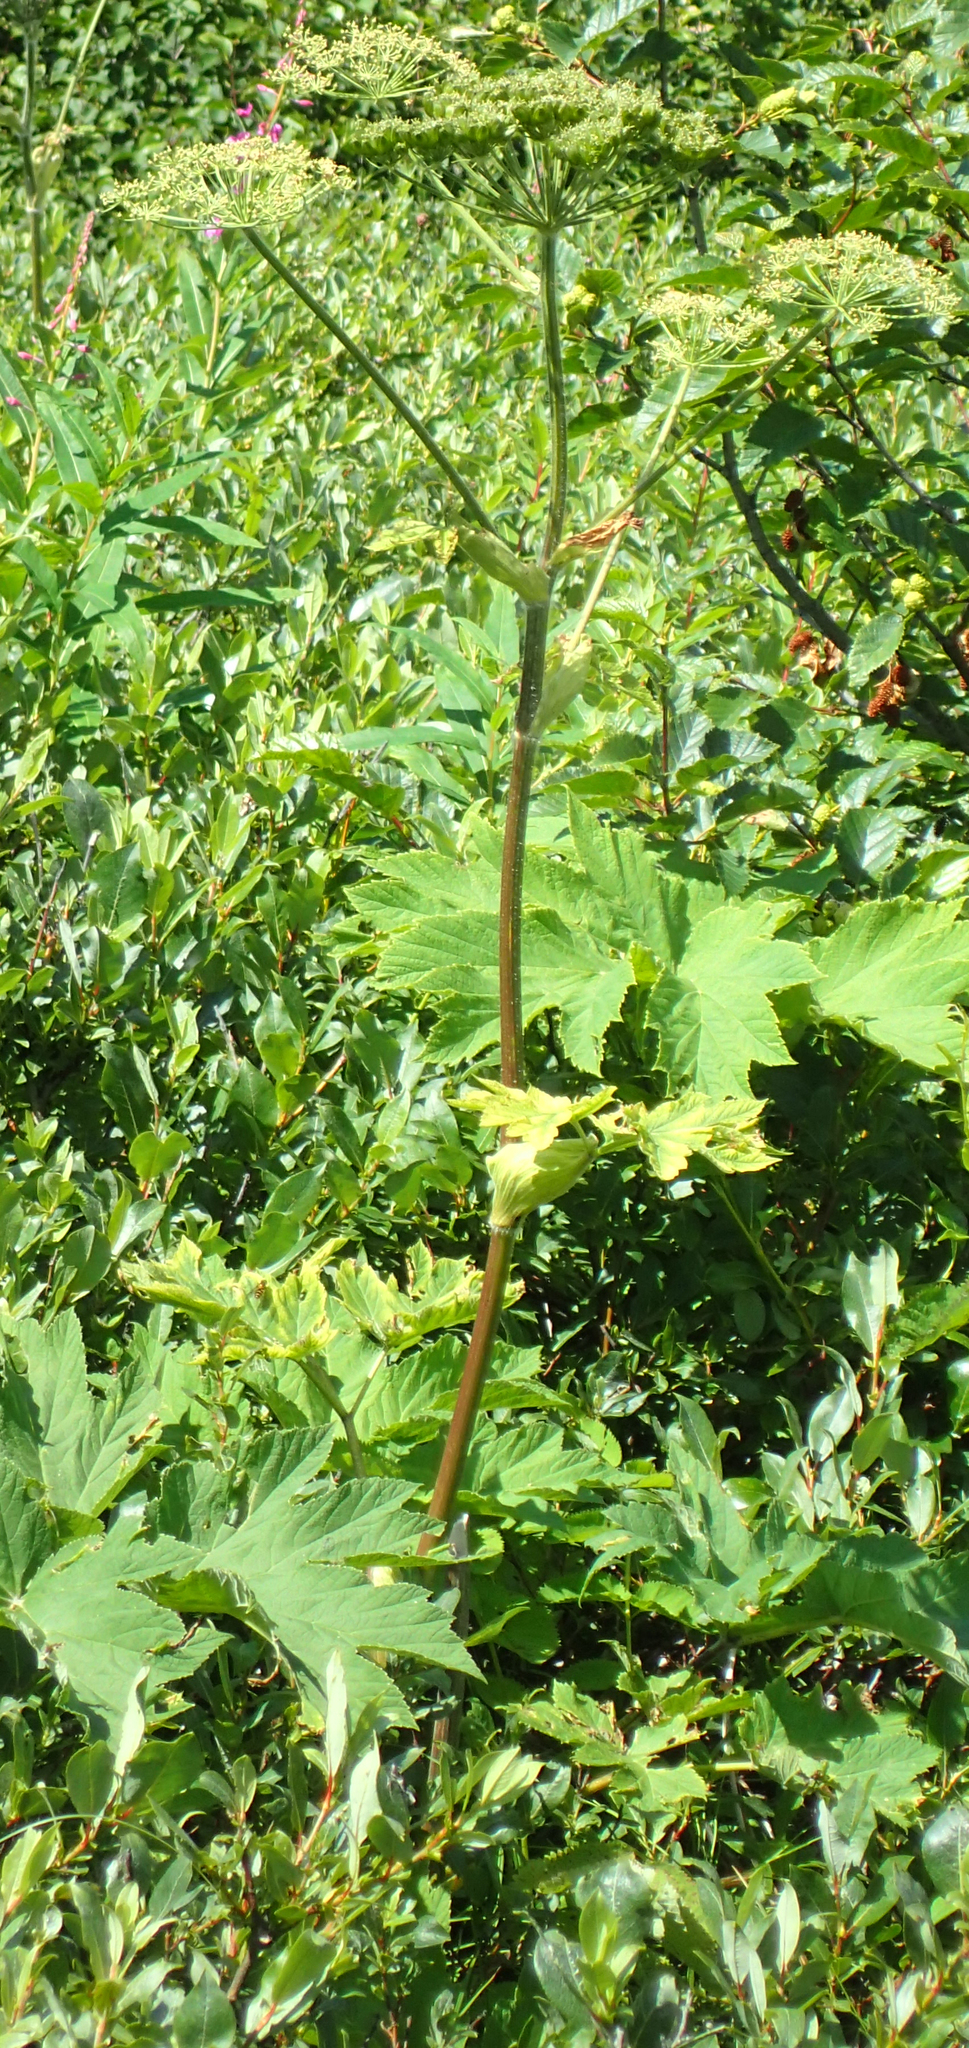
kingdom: Plantae
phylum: Tracheophyta
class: Magnoliopsida
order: Apiales
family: Apiaceae
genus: Heracleum
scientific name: Heracleum maximum
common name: American cow parsnip
